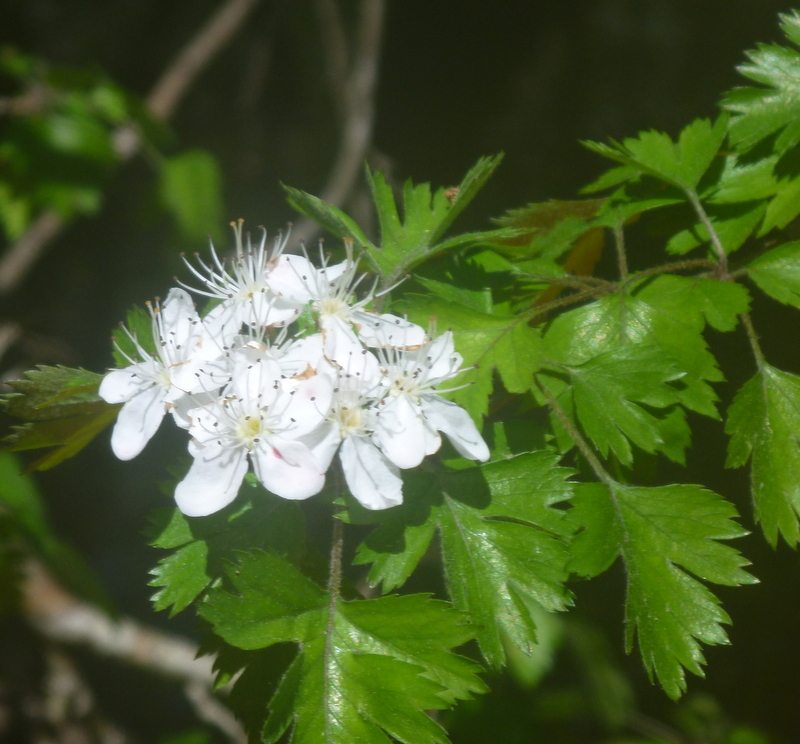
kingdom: Plantae
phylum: Tracheophyta
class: Magnoliopsida
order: Rosales
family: Rosaceae
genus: Crataegus
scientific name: Crataegus marshallii
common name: Parsley-hawthorn
